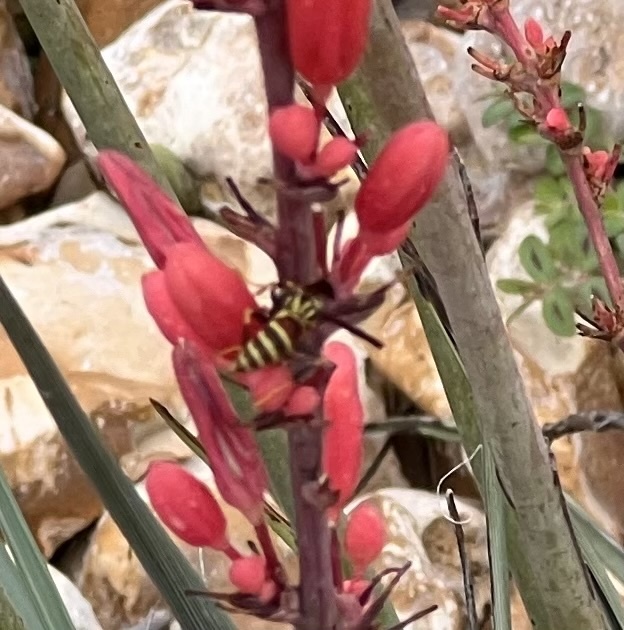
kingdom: Animalia
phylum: Arthropoda
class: Insecta
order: Hymenoptera
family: Eumenidae
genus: Polistes
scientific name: Polistes exclamans
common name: Paper wasp
